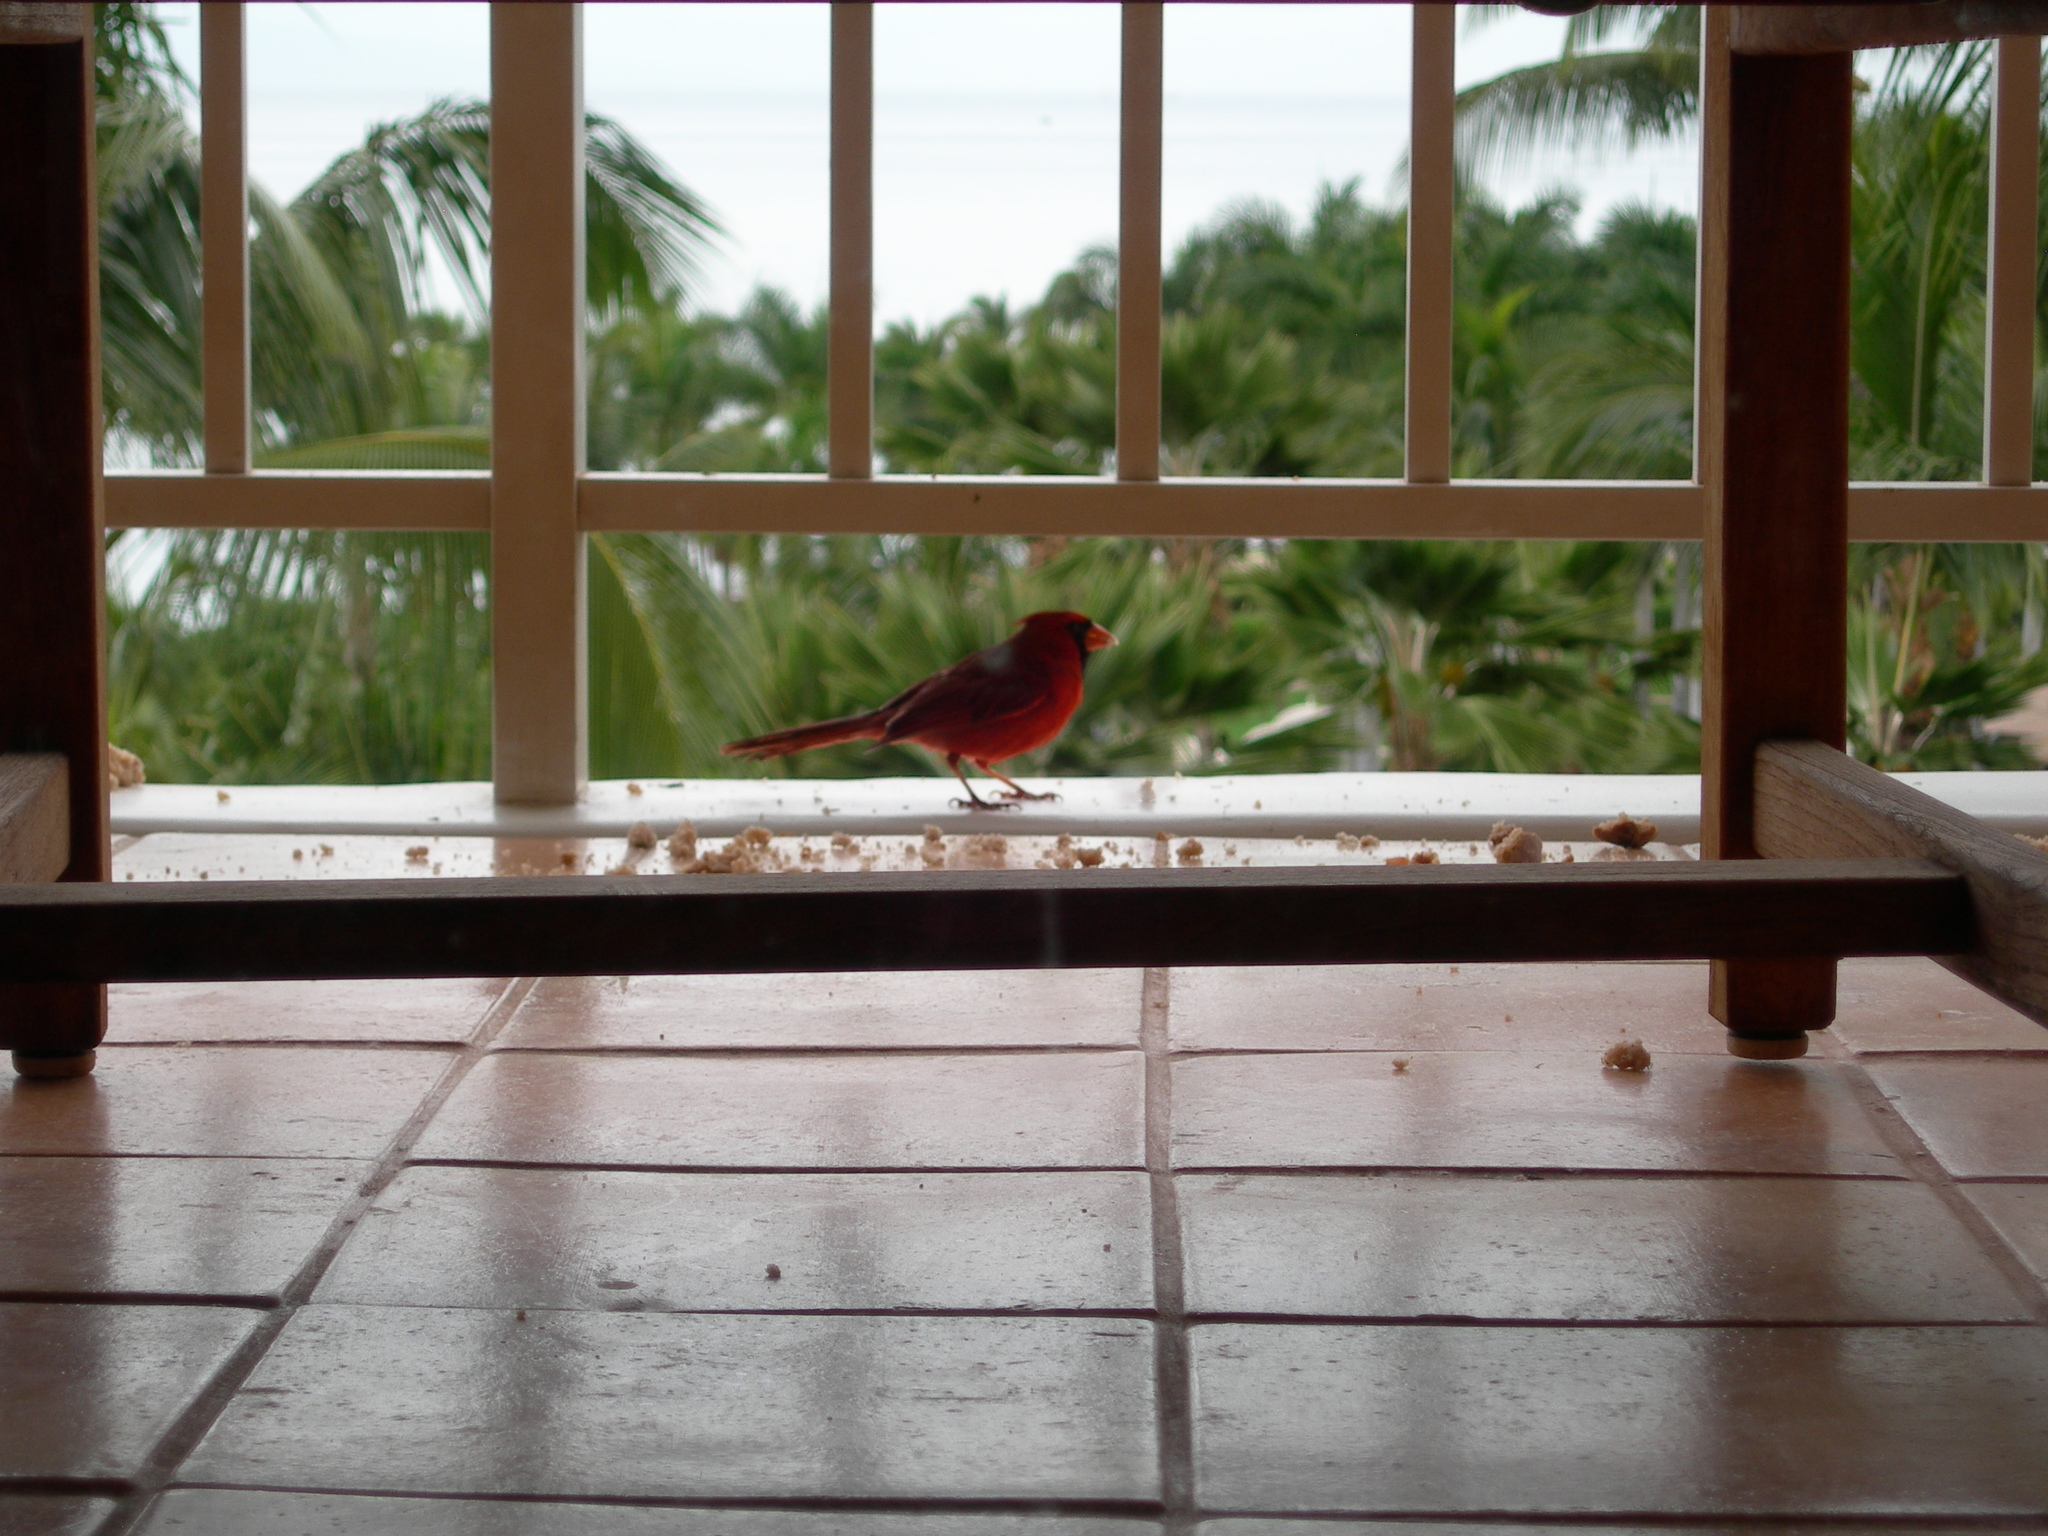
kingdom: Animalia
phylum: Chordata
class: Aves
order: Passeriformes
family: Cardinalidae
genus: Cardinalis
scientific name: Cardinalis cardinalis
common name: Northern cardinal
